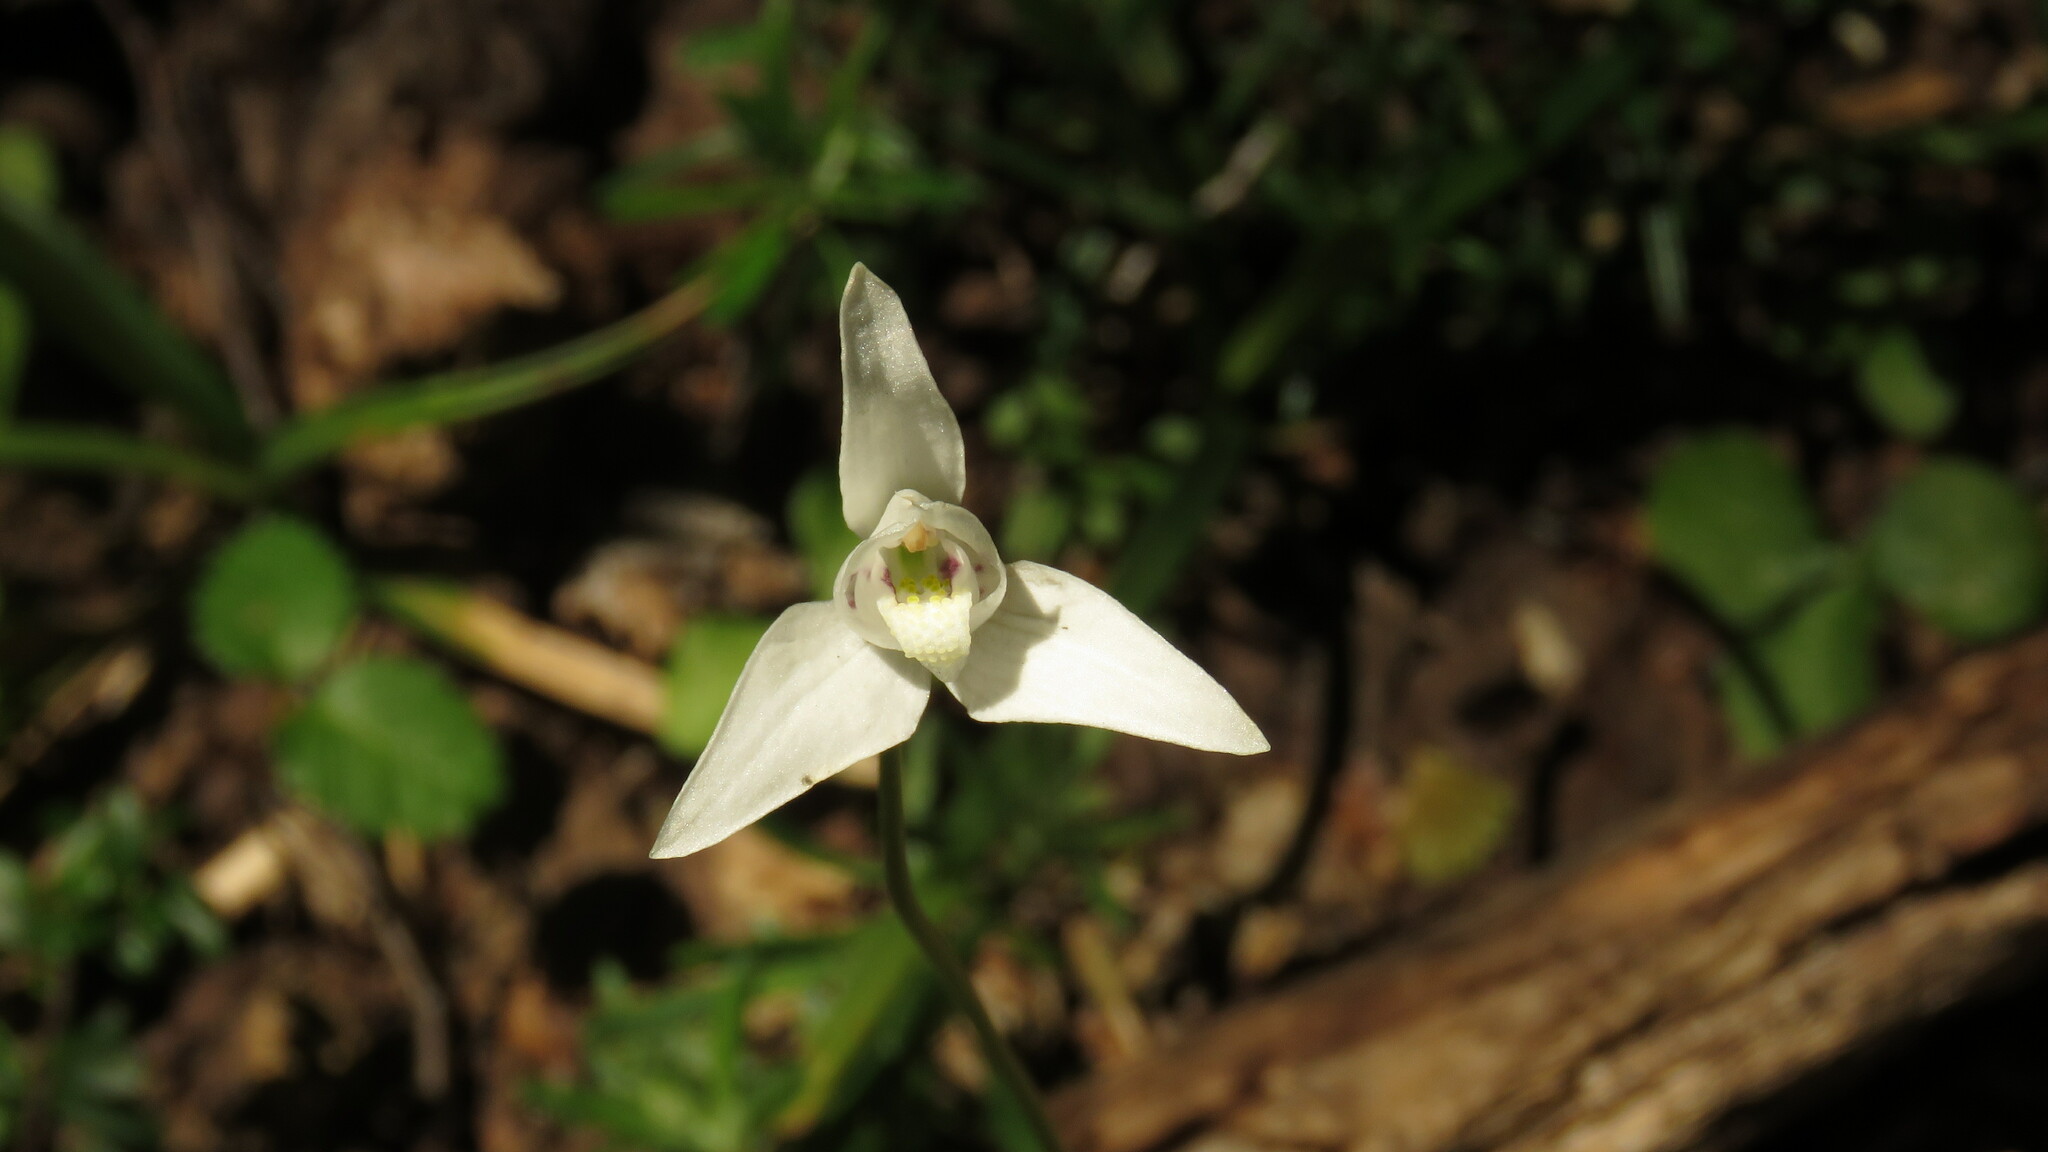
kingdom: Plantae
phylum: Tracheophyta
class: Liliopsida
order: Asparagales
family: Orchidaceae
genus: Codonorchis
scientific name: Codonorchis lessonii
